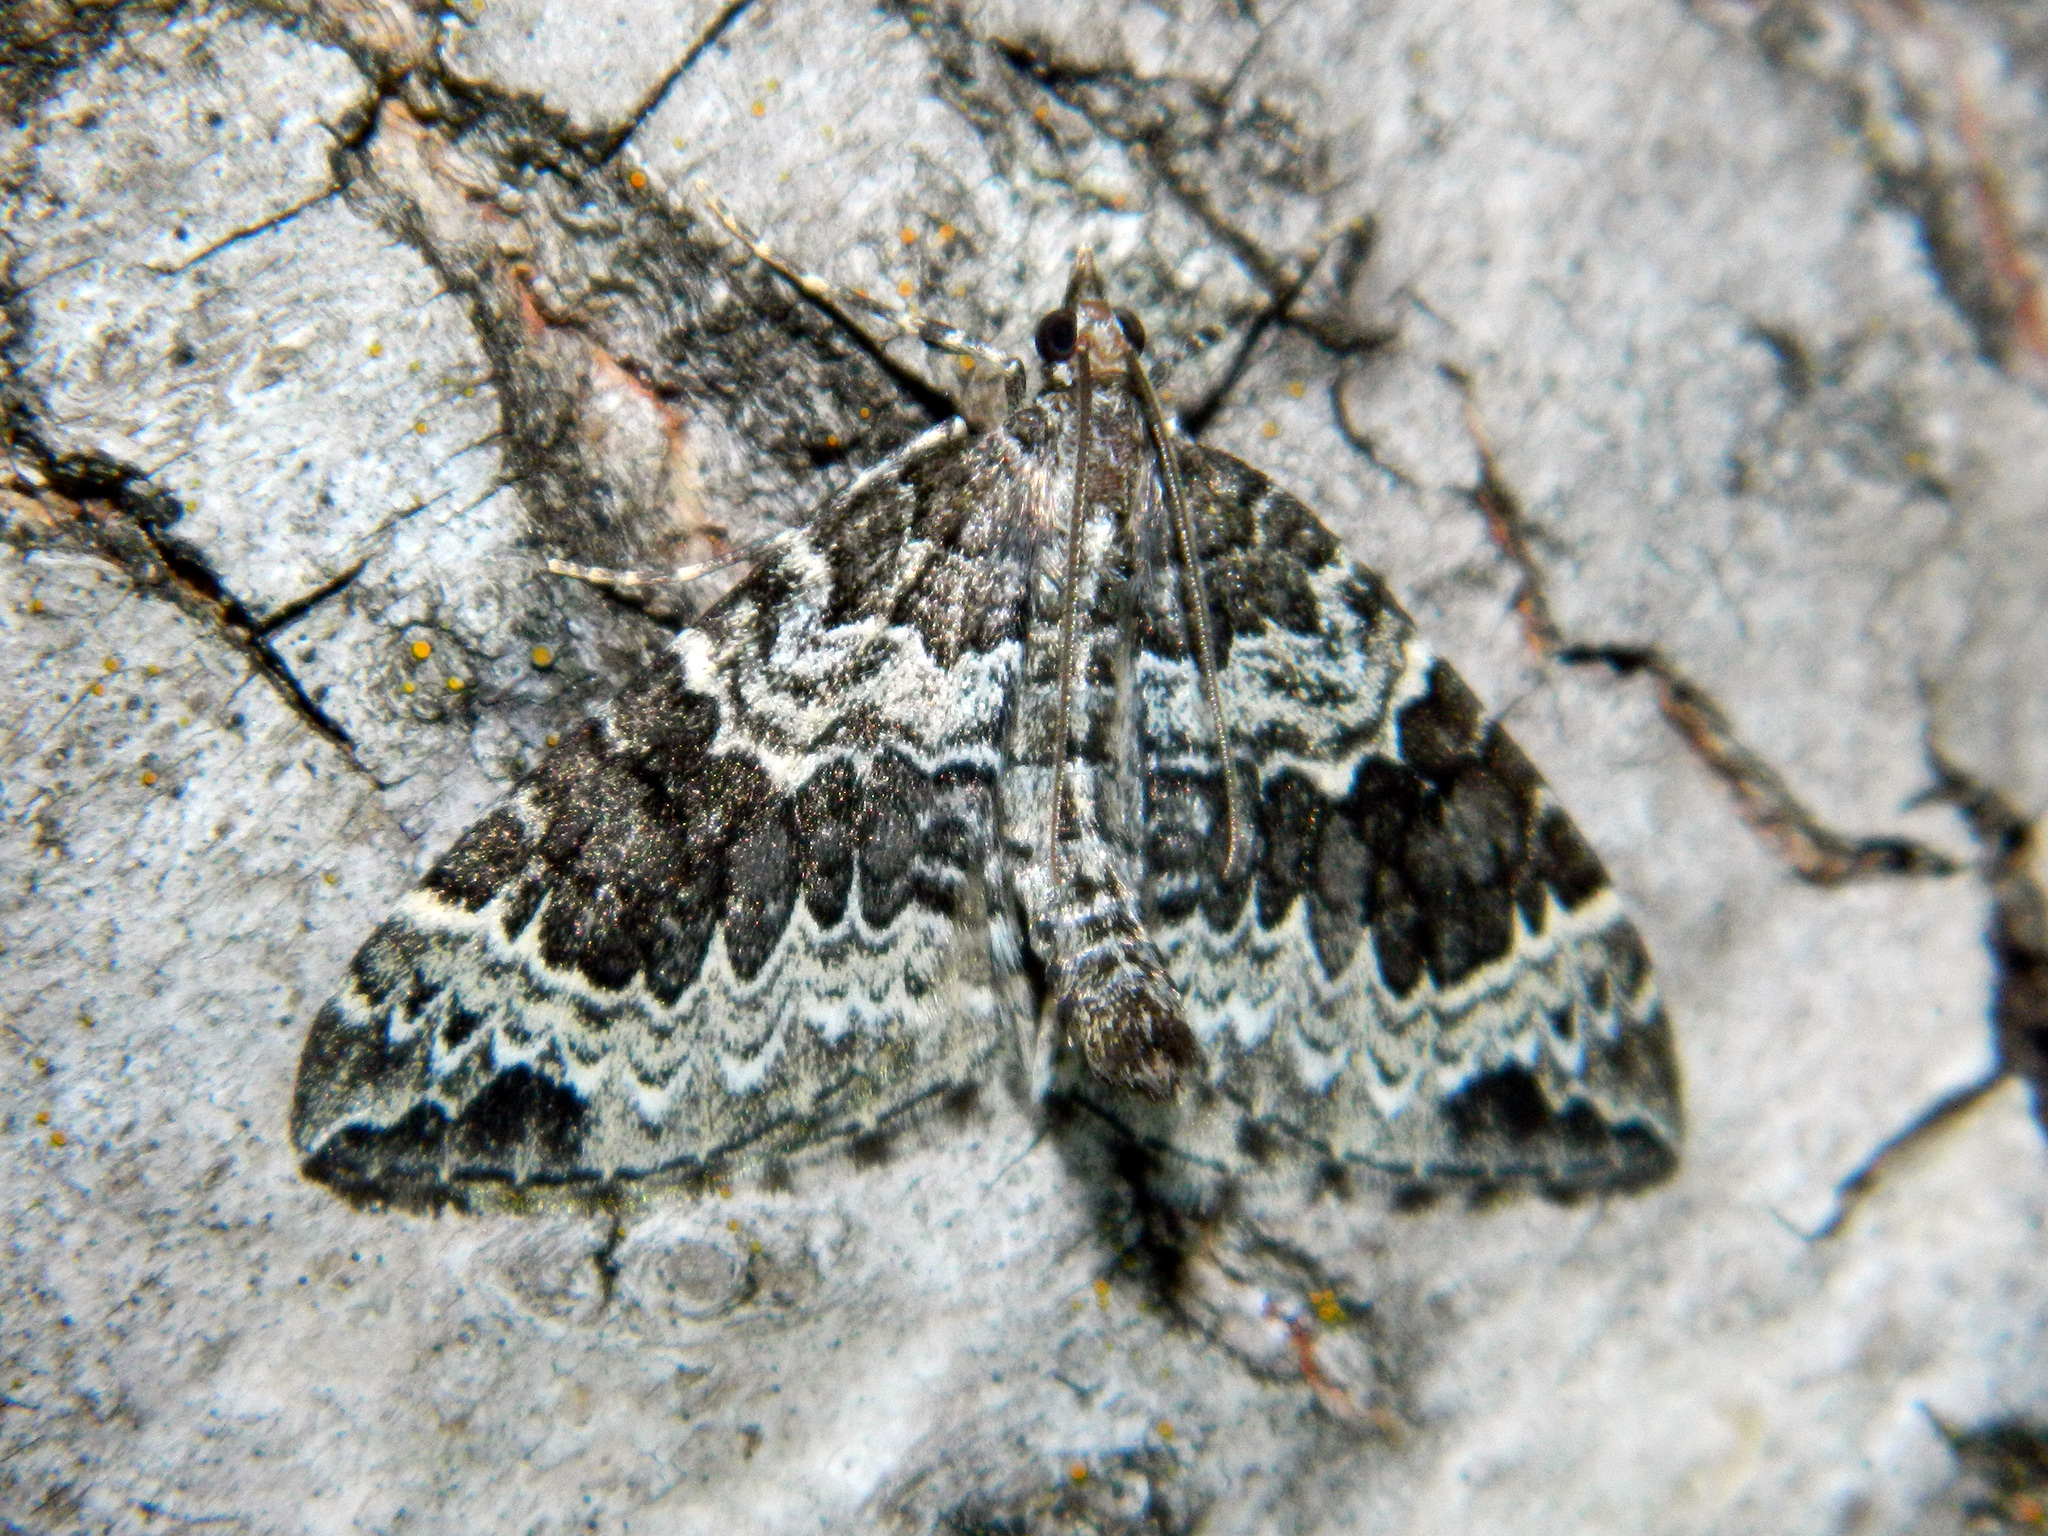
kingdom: Animalia
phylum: Arthropoda
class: Insecta
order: Lepidoptera
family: Geometridae
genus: Eulithis
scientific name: Eulithis explanata
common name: White eulithis
